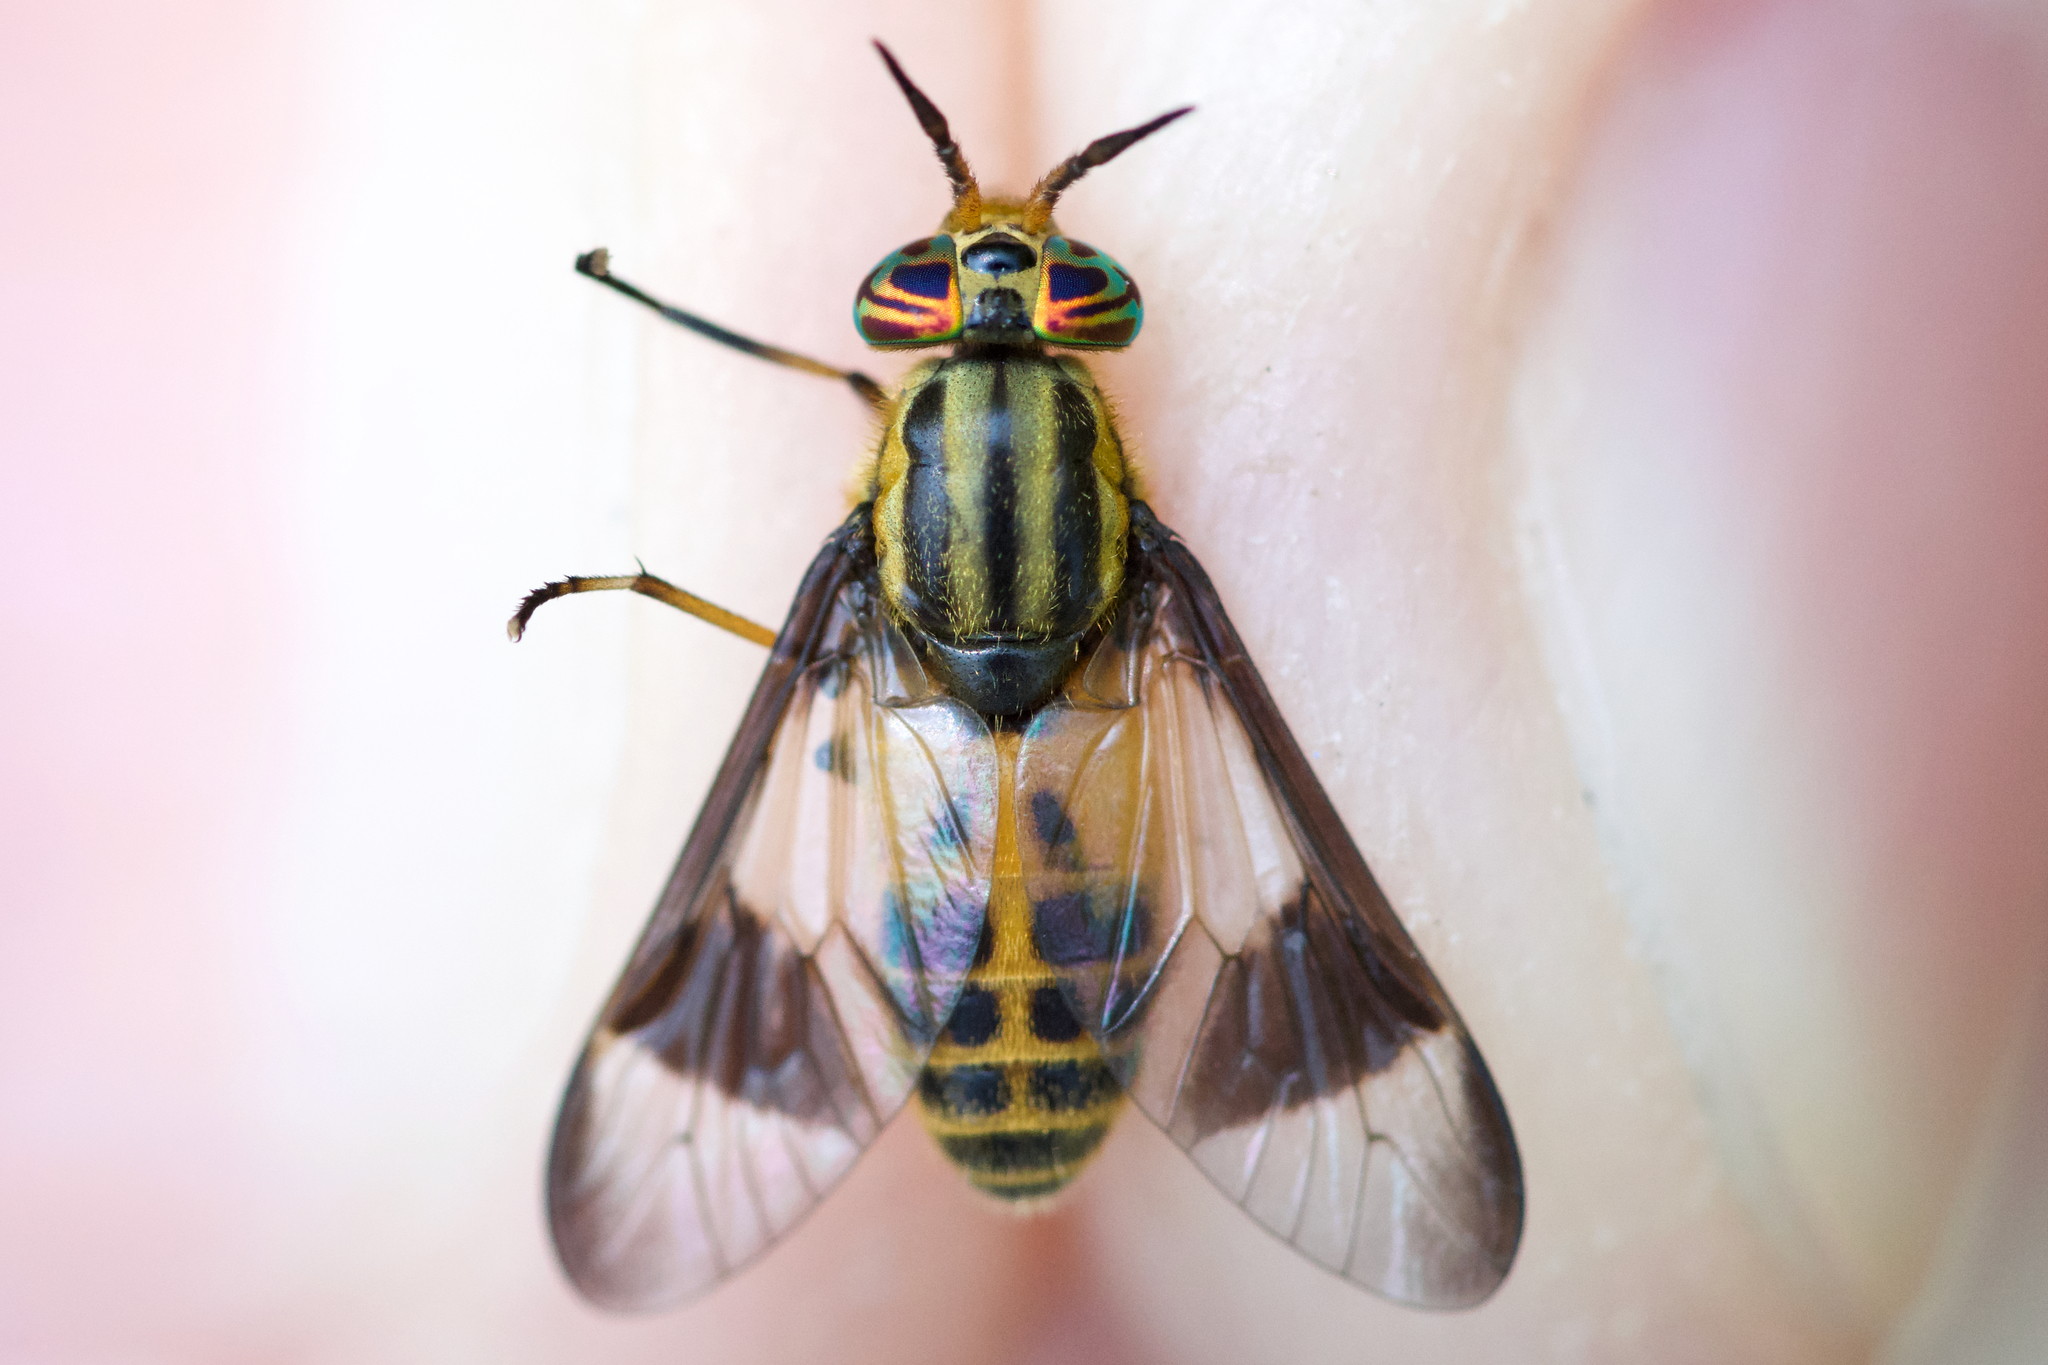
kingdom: Animalia
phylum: Arthropoda
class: Insecta
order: Diptera
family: Tabanidae
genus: Chrysops
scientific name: Chrysops geminatus
